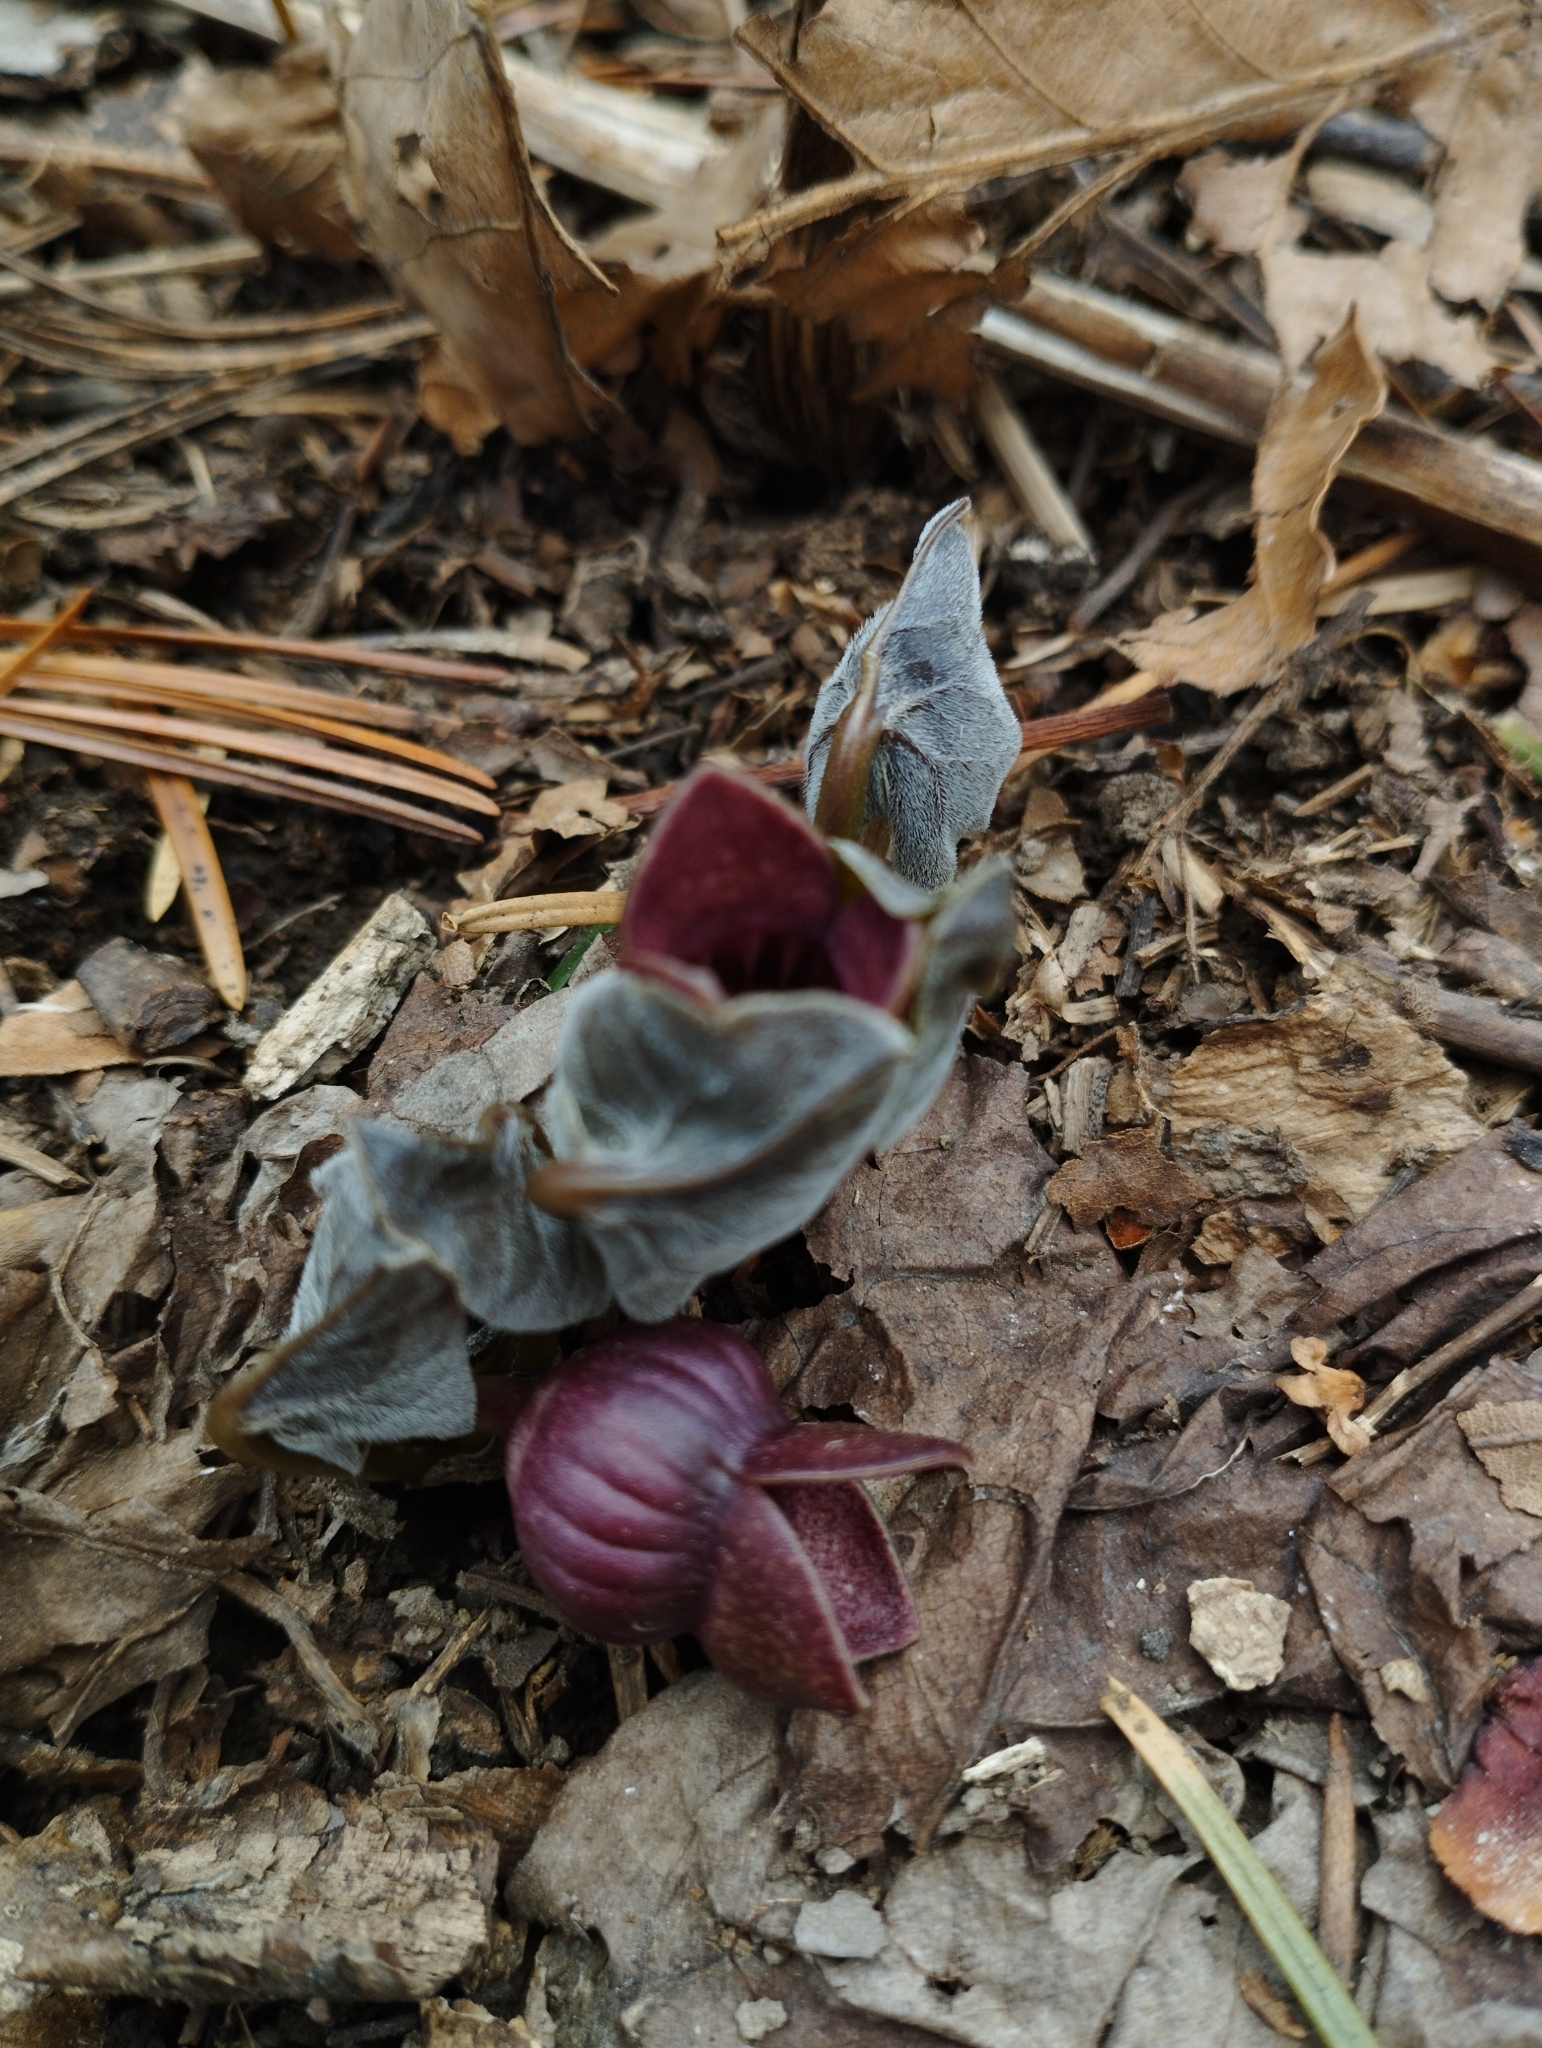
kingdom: Plantae
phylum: Tracheophyta
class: Magnoliopsida
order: Piperales
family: Aristolochiaceae
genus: Asarum
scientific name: Asarum sieboldii
